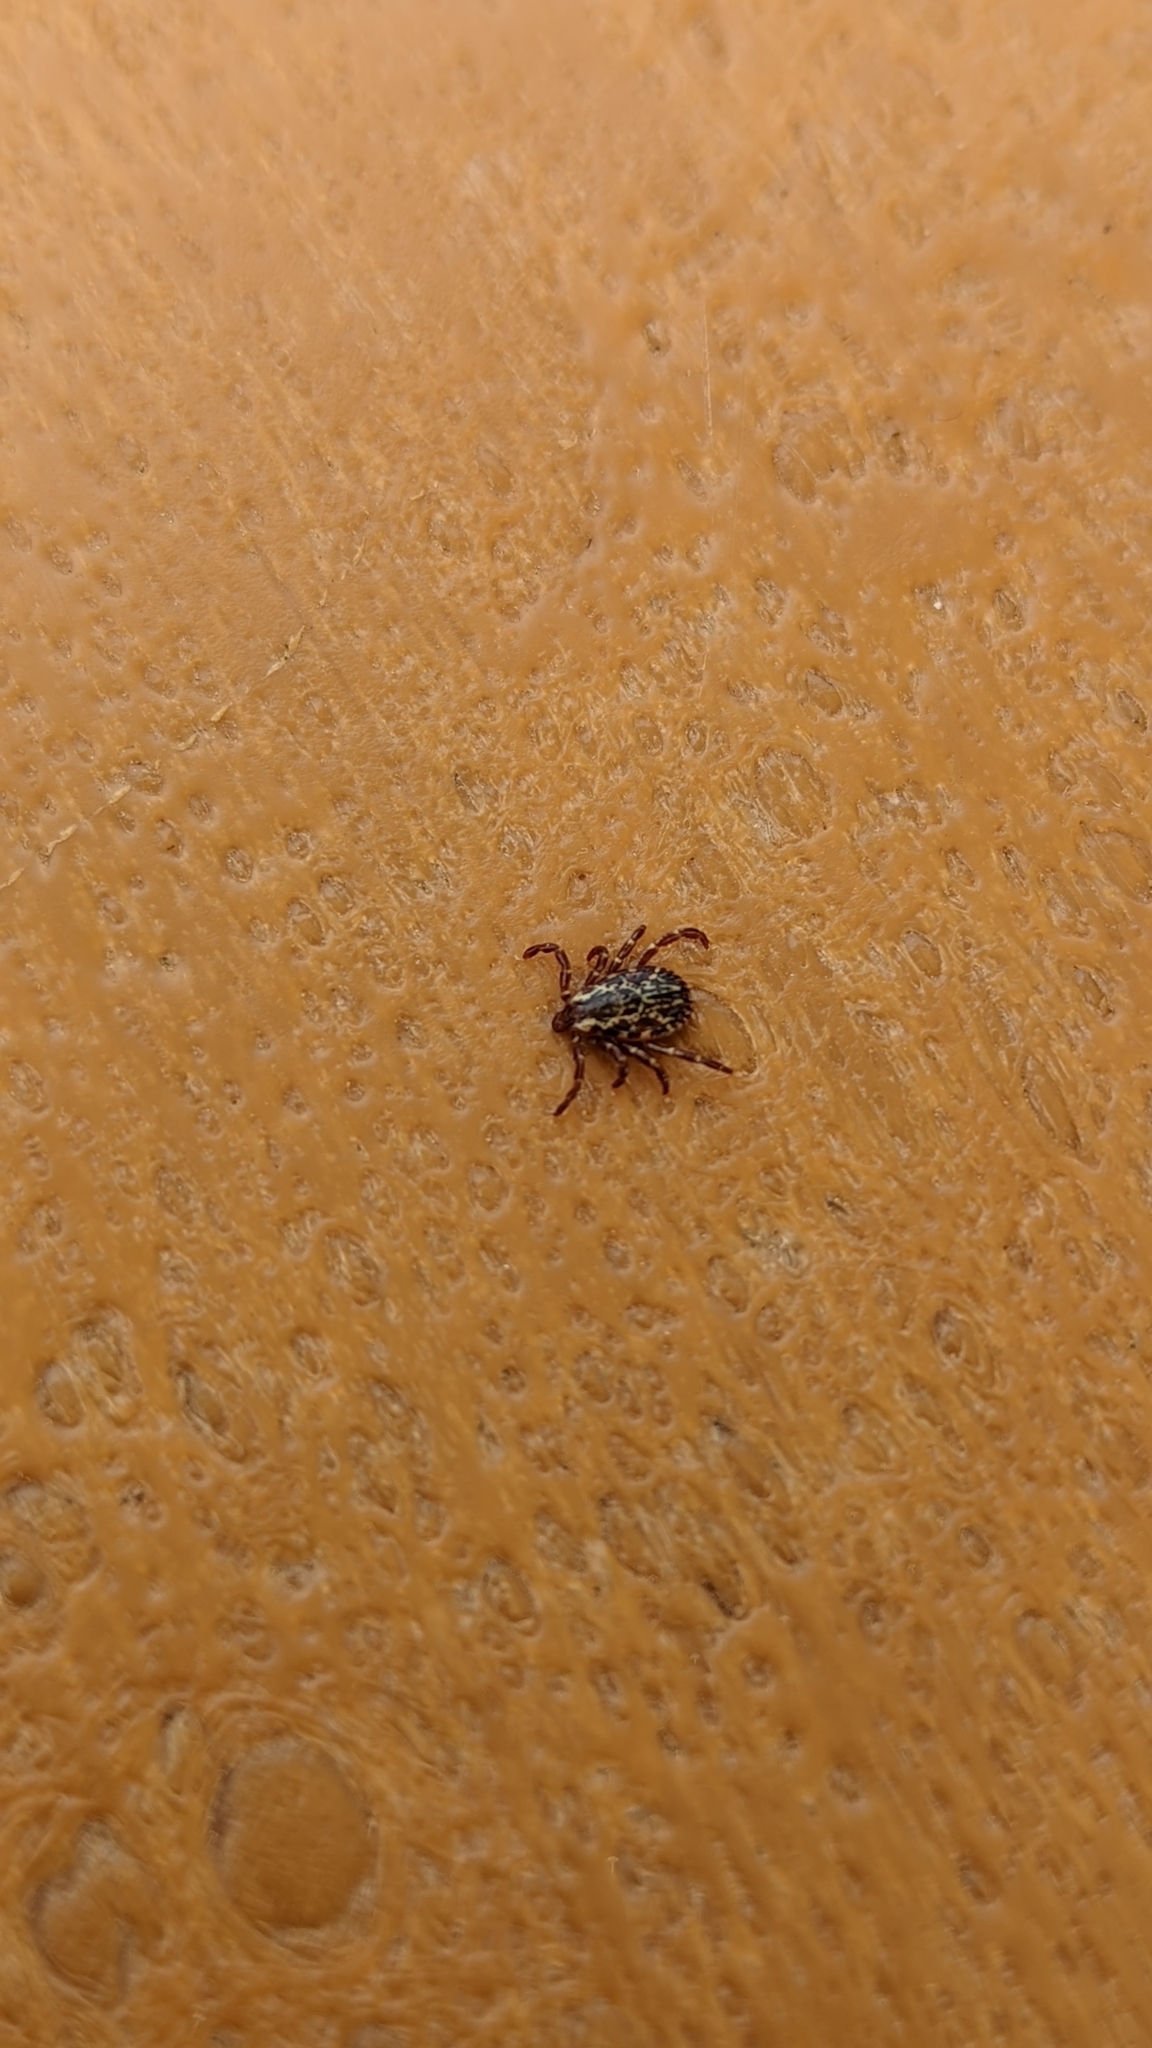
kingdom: Animalia
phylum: Arthropoda
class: Arachnida
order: Ixodida
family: Ixodidae
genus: Dermacentor
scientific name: Dermacentor variabilis
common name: American dog tick
